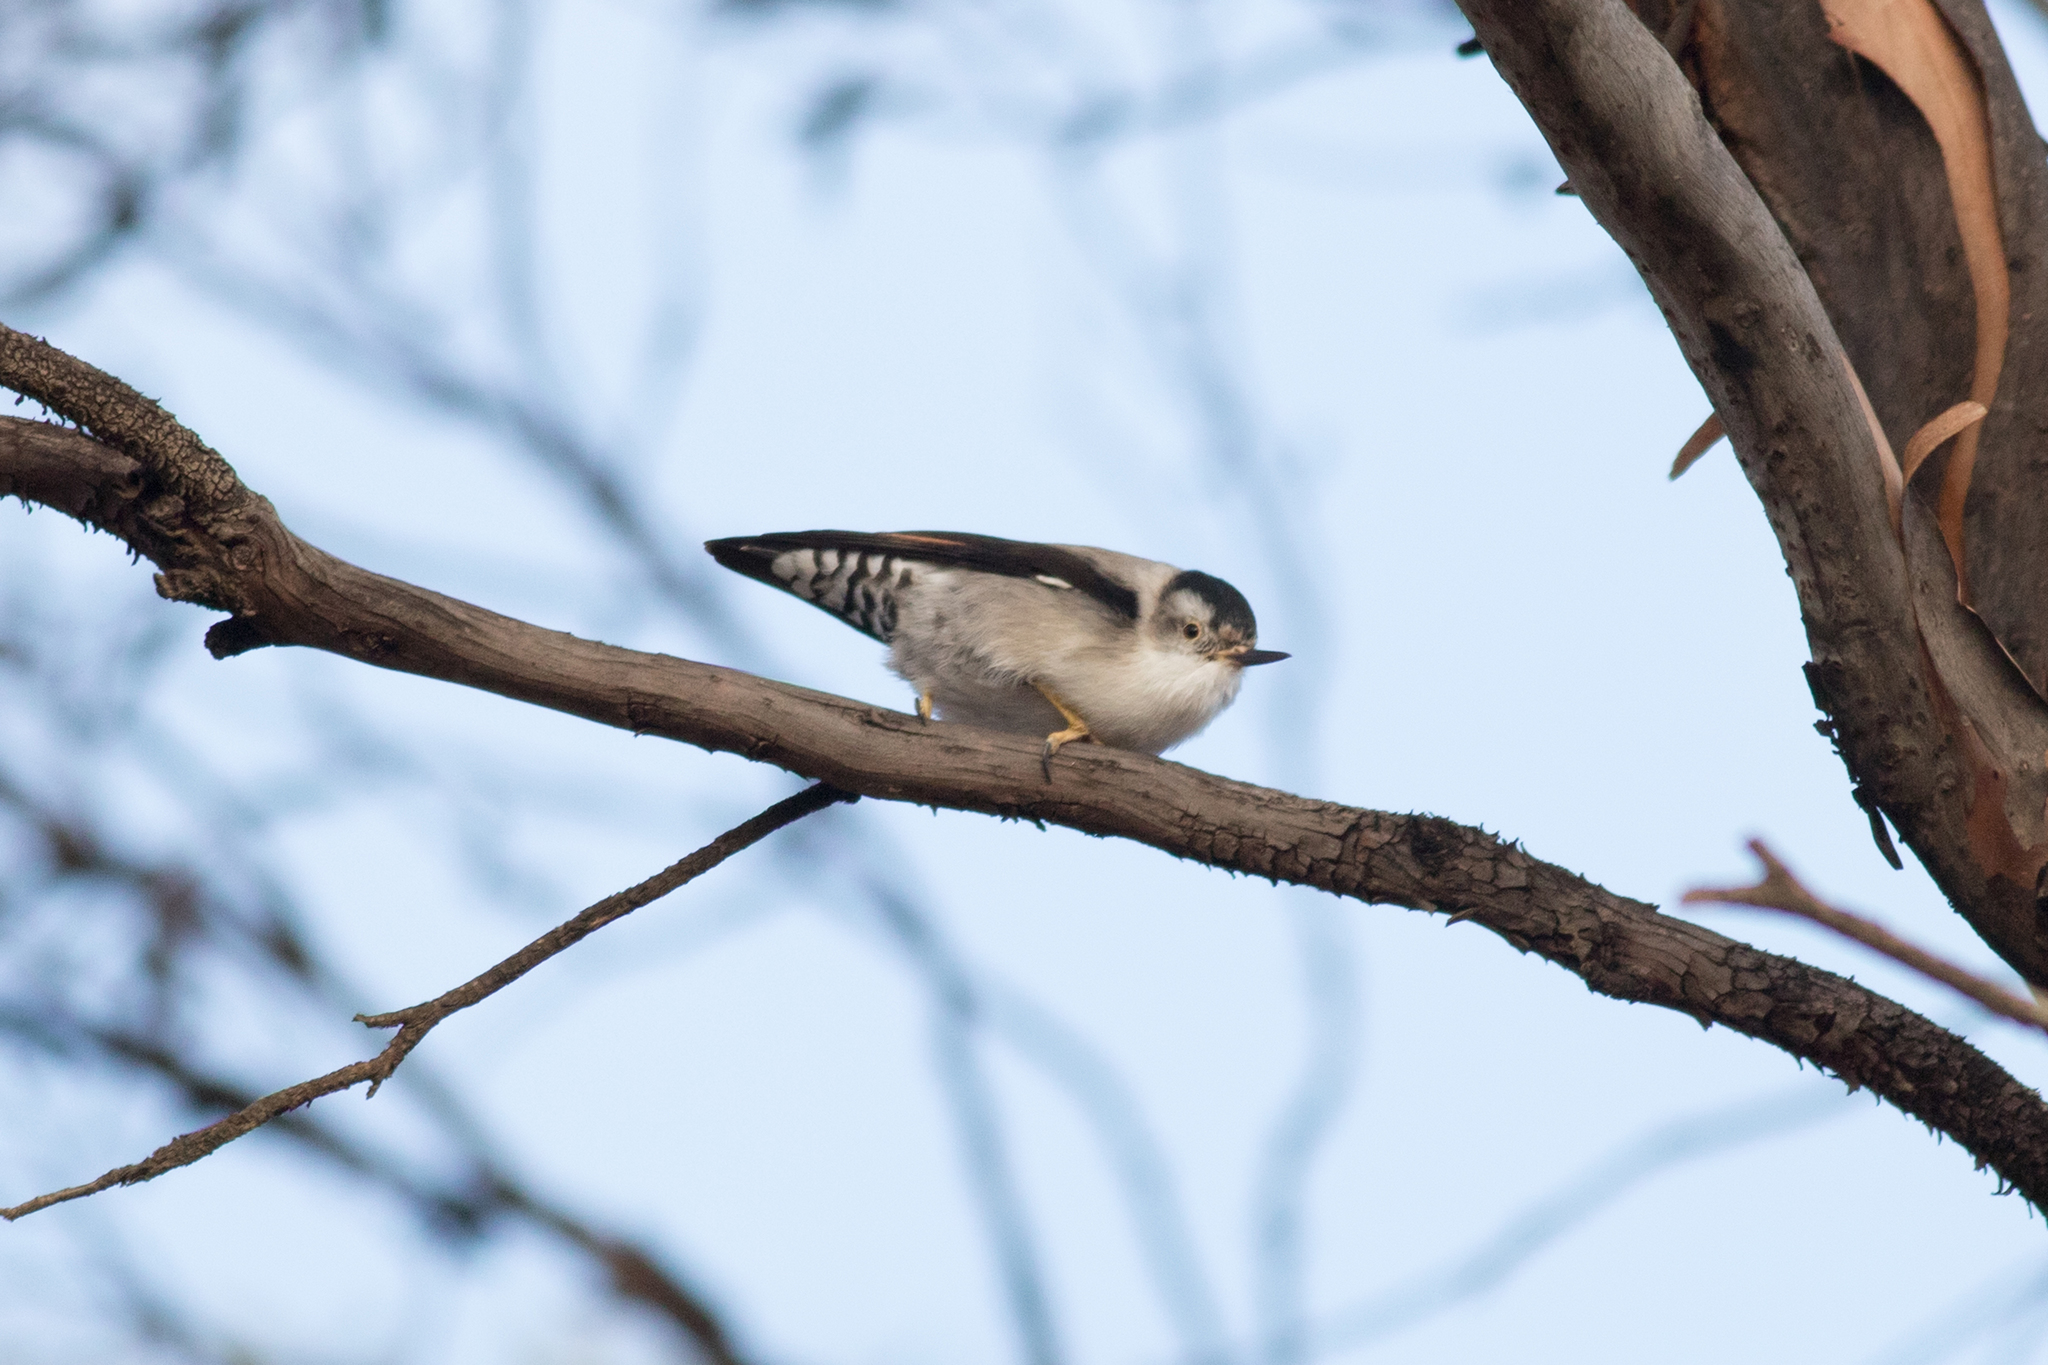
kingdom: Animalia
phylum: Chordata
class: Aves
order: Passeriformes
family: Neosittidae
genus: Daphoenositta
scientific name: Daphoenositta chrysoptera
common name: Varied sittella
